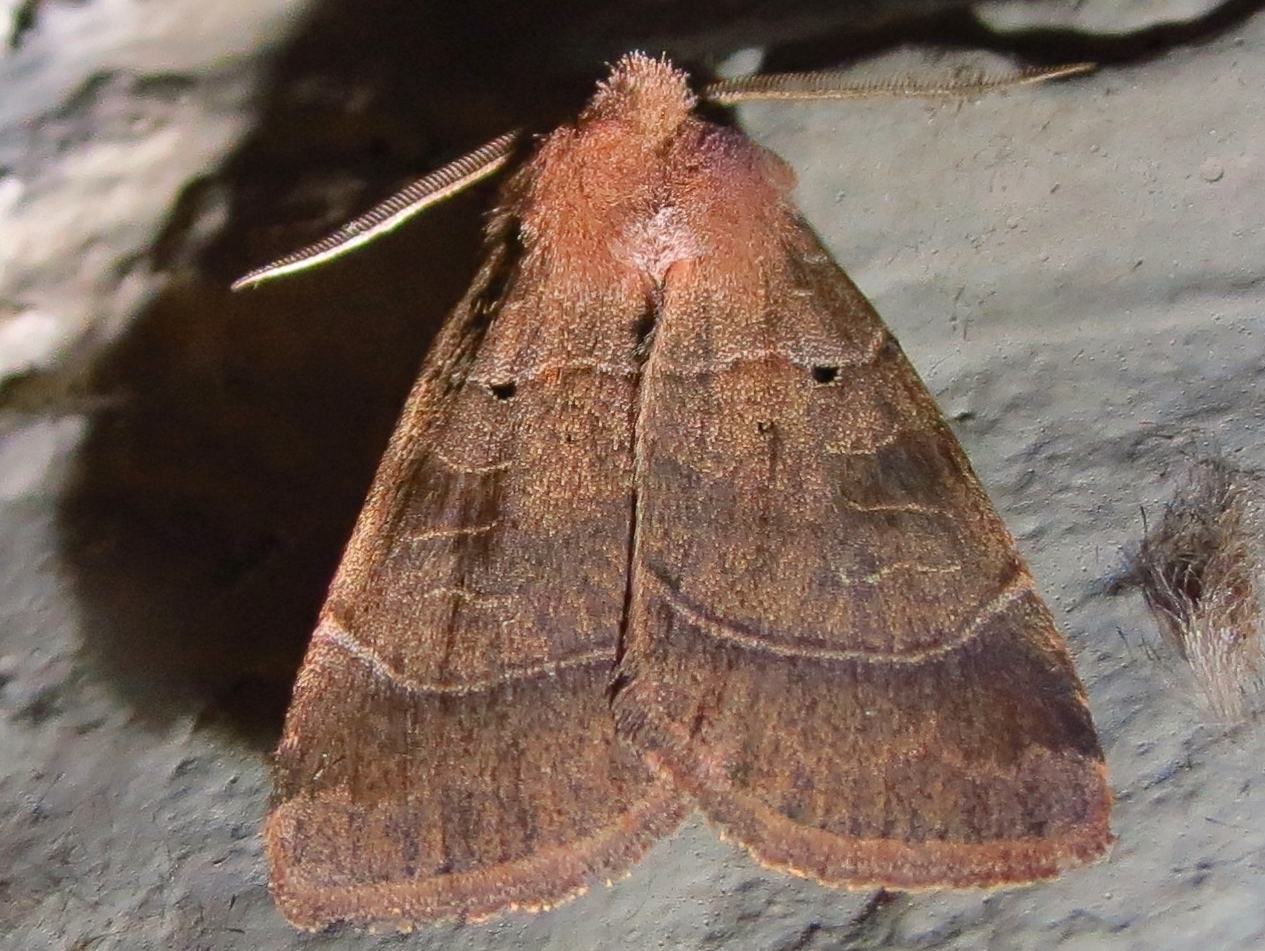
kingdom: Animalia
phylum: Arthropoda
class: Insecta
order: Lepidoptera
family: Noctuidae
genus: Agnorisma
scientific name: Agnorisma badinodis
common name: Pale-banded dart
